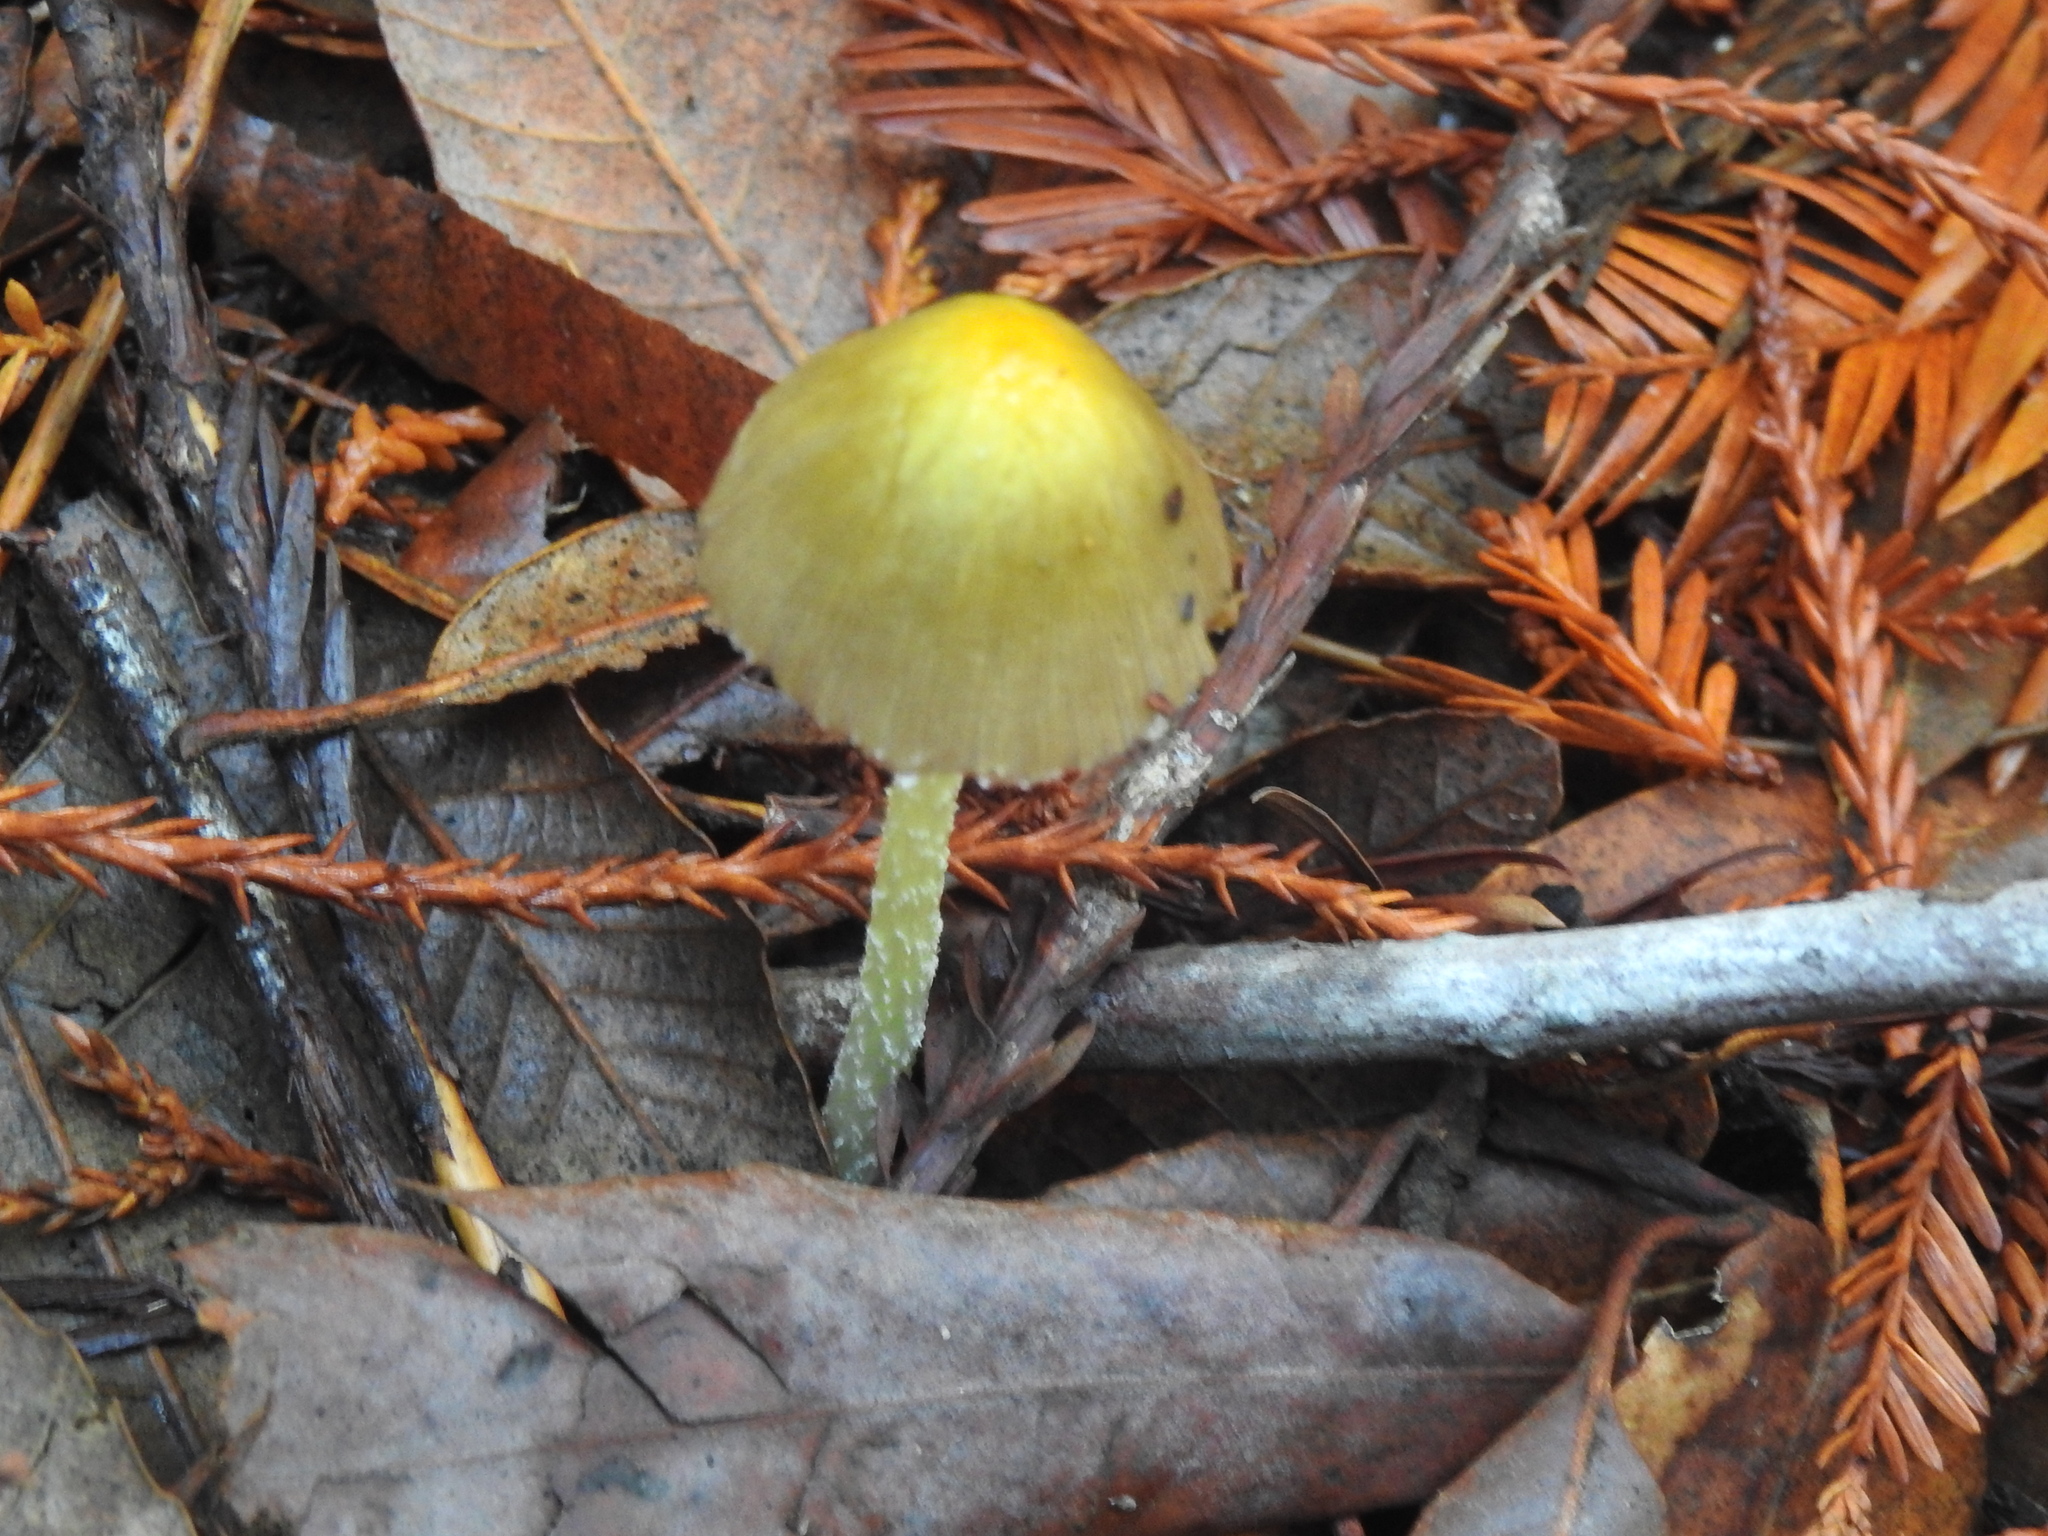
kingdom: Fungi
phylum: Basidiomycota
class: Agaricomycetes
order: Agaricales
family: Bolbitiaceae
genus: Bolbitius
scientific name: Bolbitius titubans
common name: Yellow fieldcap
